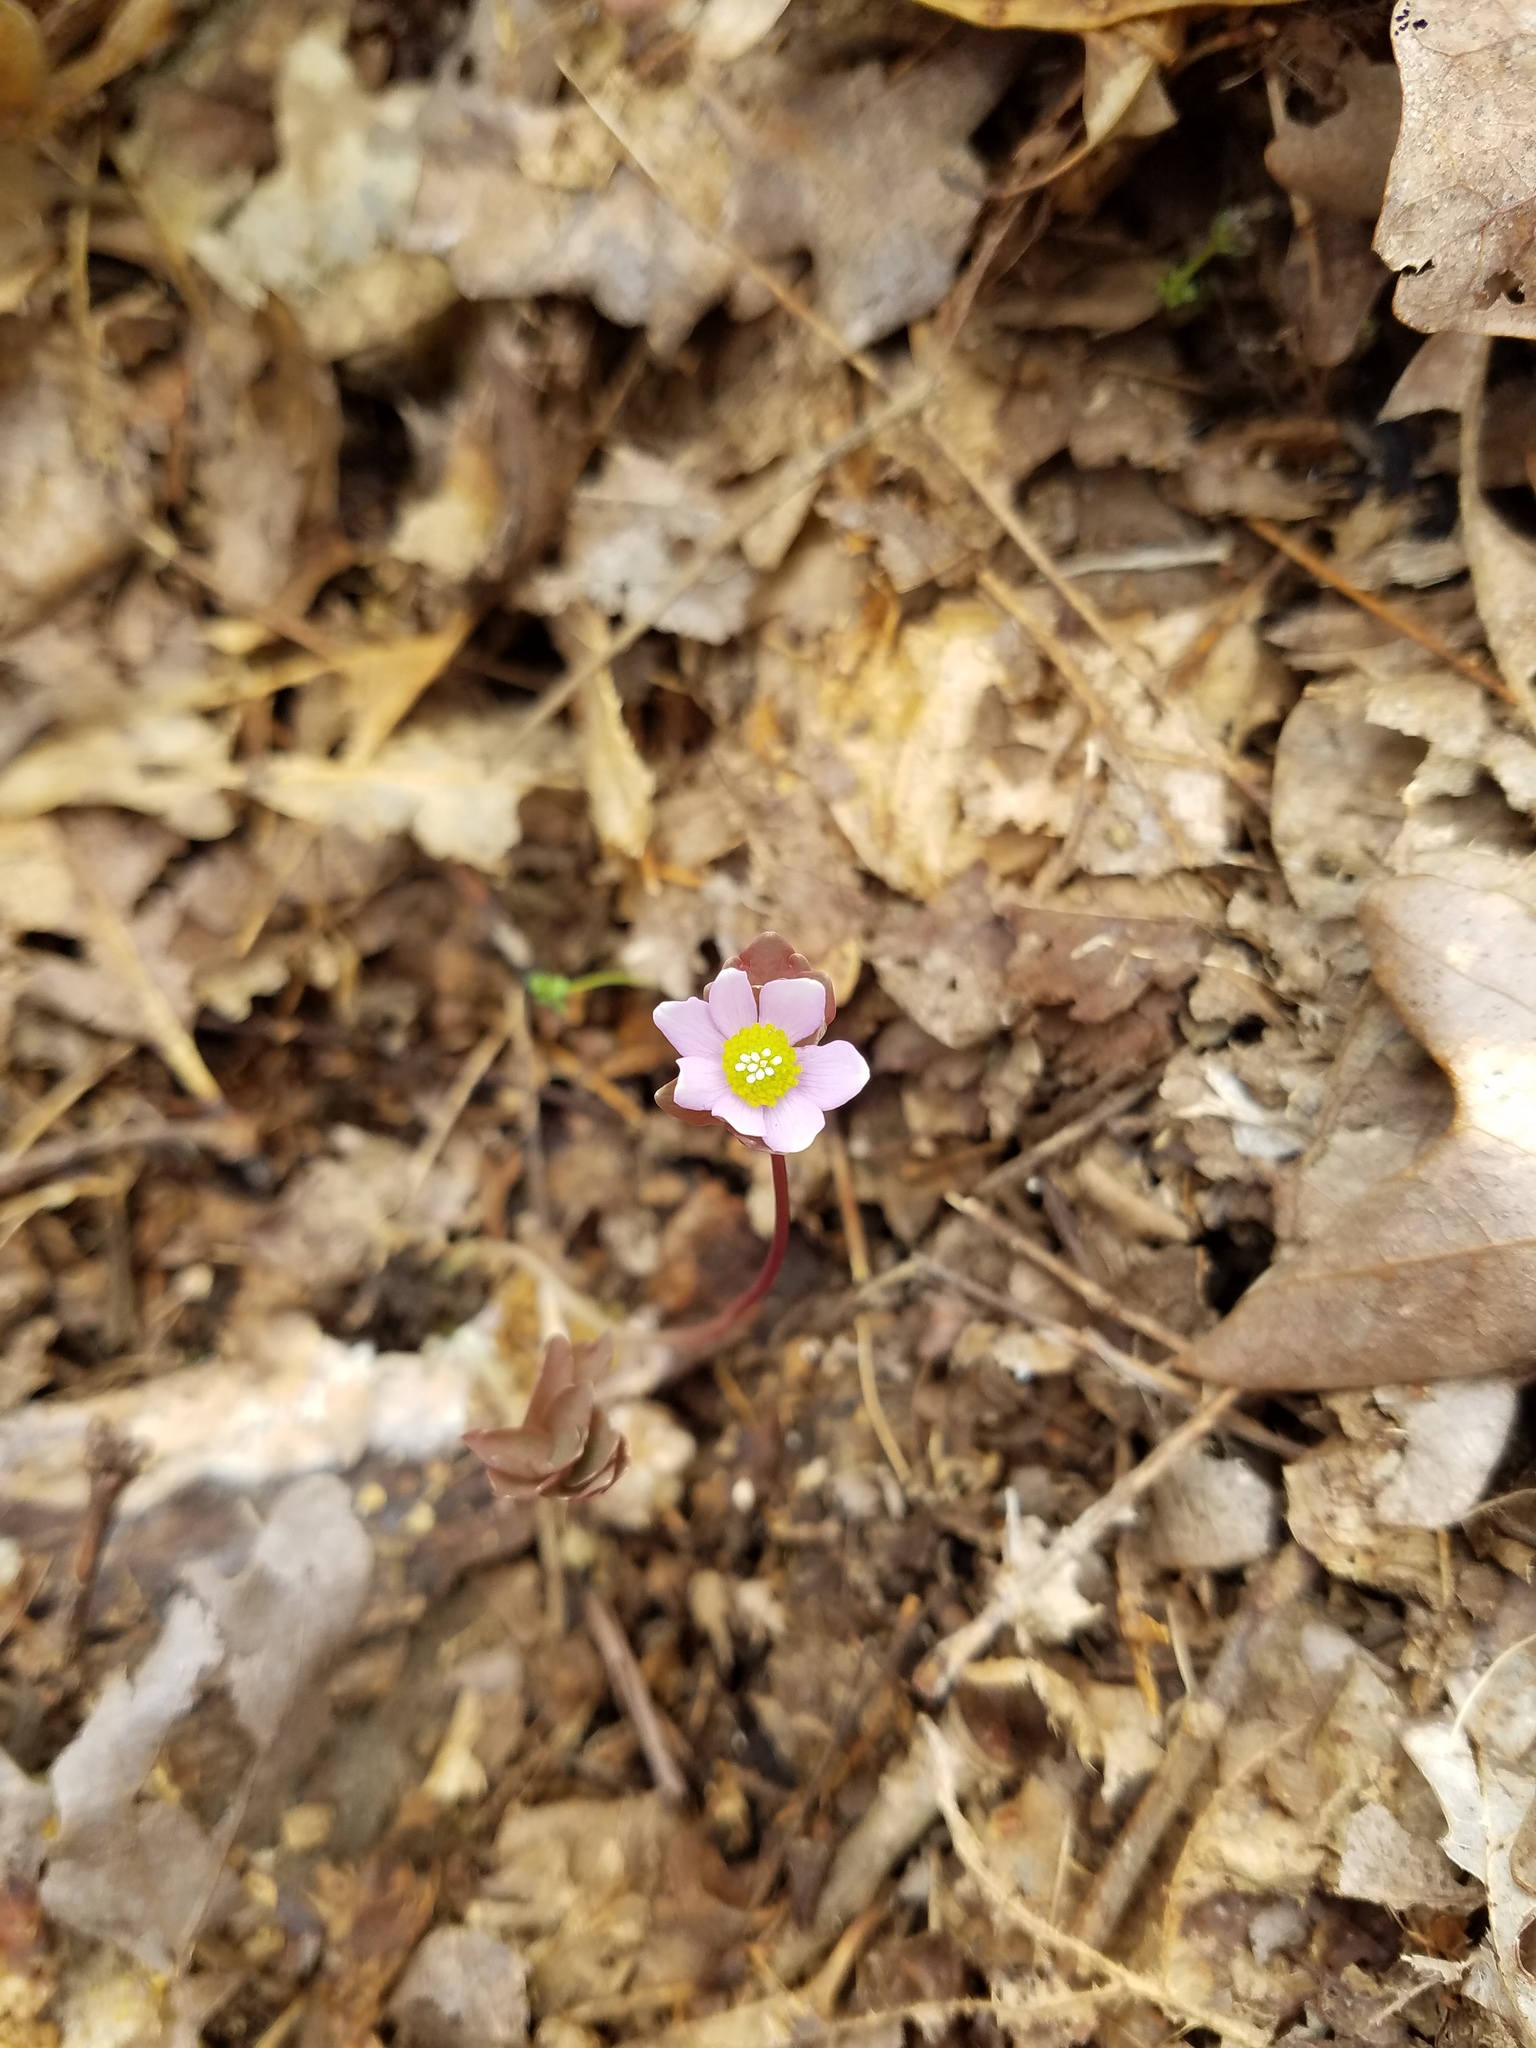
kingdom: Plantae
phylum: Tracheophyta
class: Magnoliopsida
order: Ranunculales
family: Ranunculaceae
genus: Thalictrum
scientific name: Thalictrum thalictroides
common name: Rue-anemone
